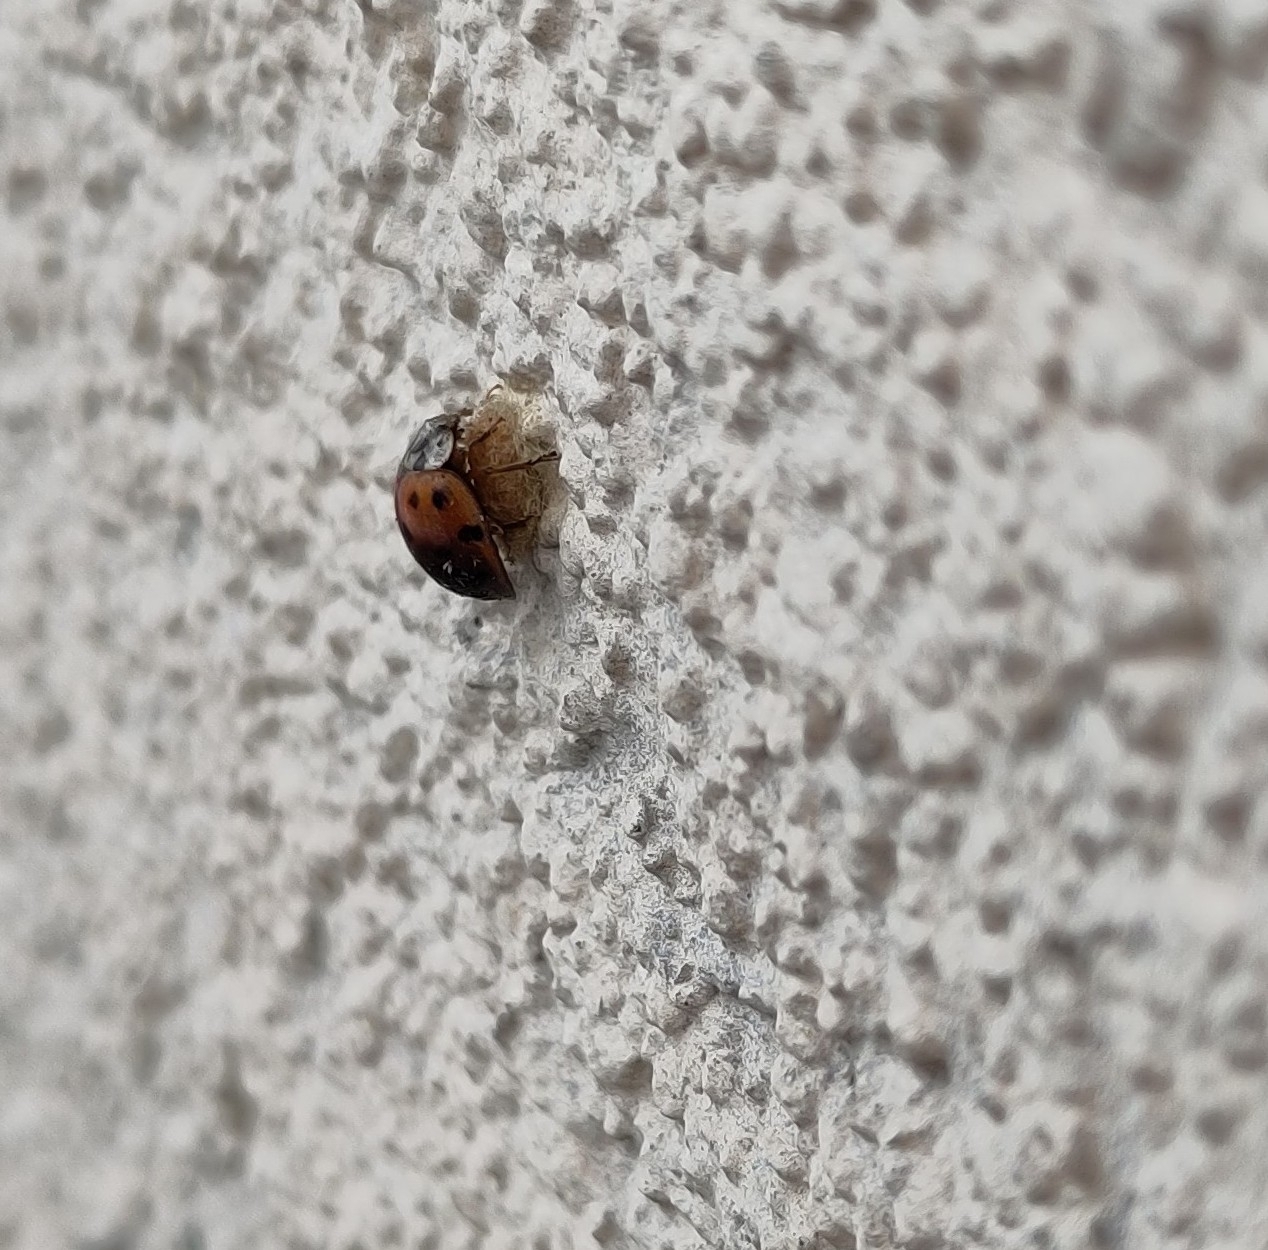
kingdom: Animalia
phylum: Arthropoda
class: Insecta
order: Hymenoptera
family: Braconidae
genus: Dinocampus
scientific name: Dinocampus coccinellae
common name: Braconid wasp
